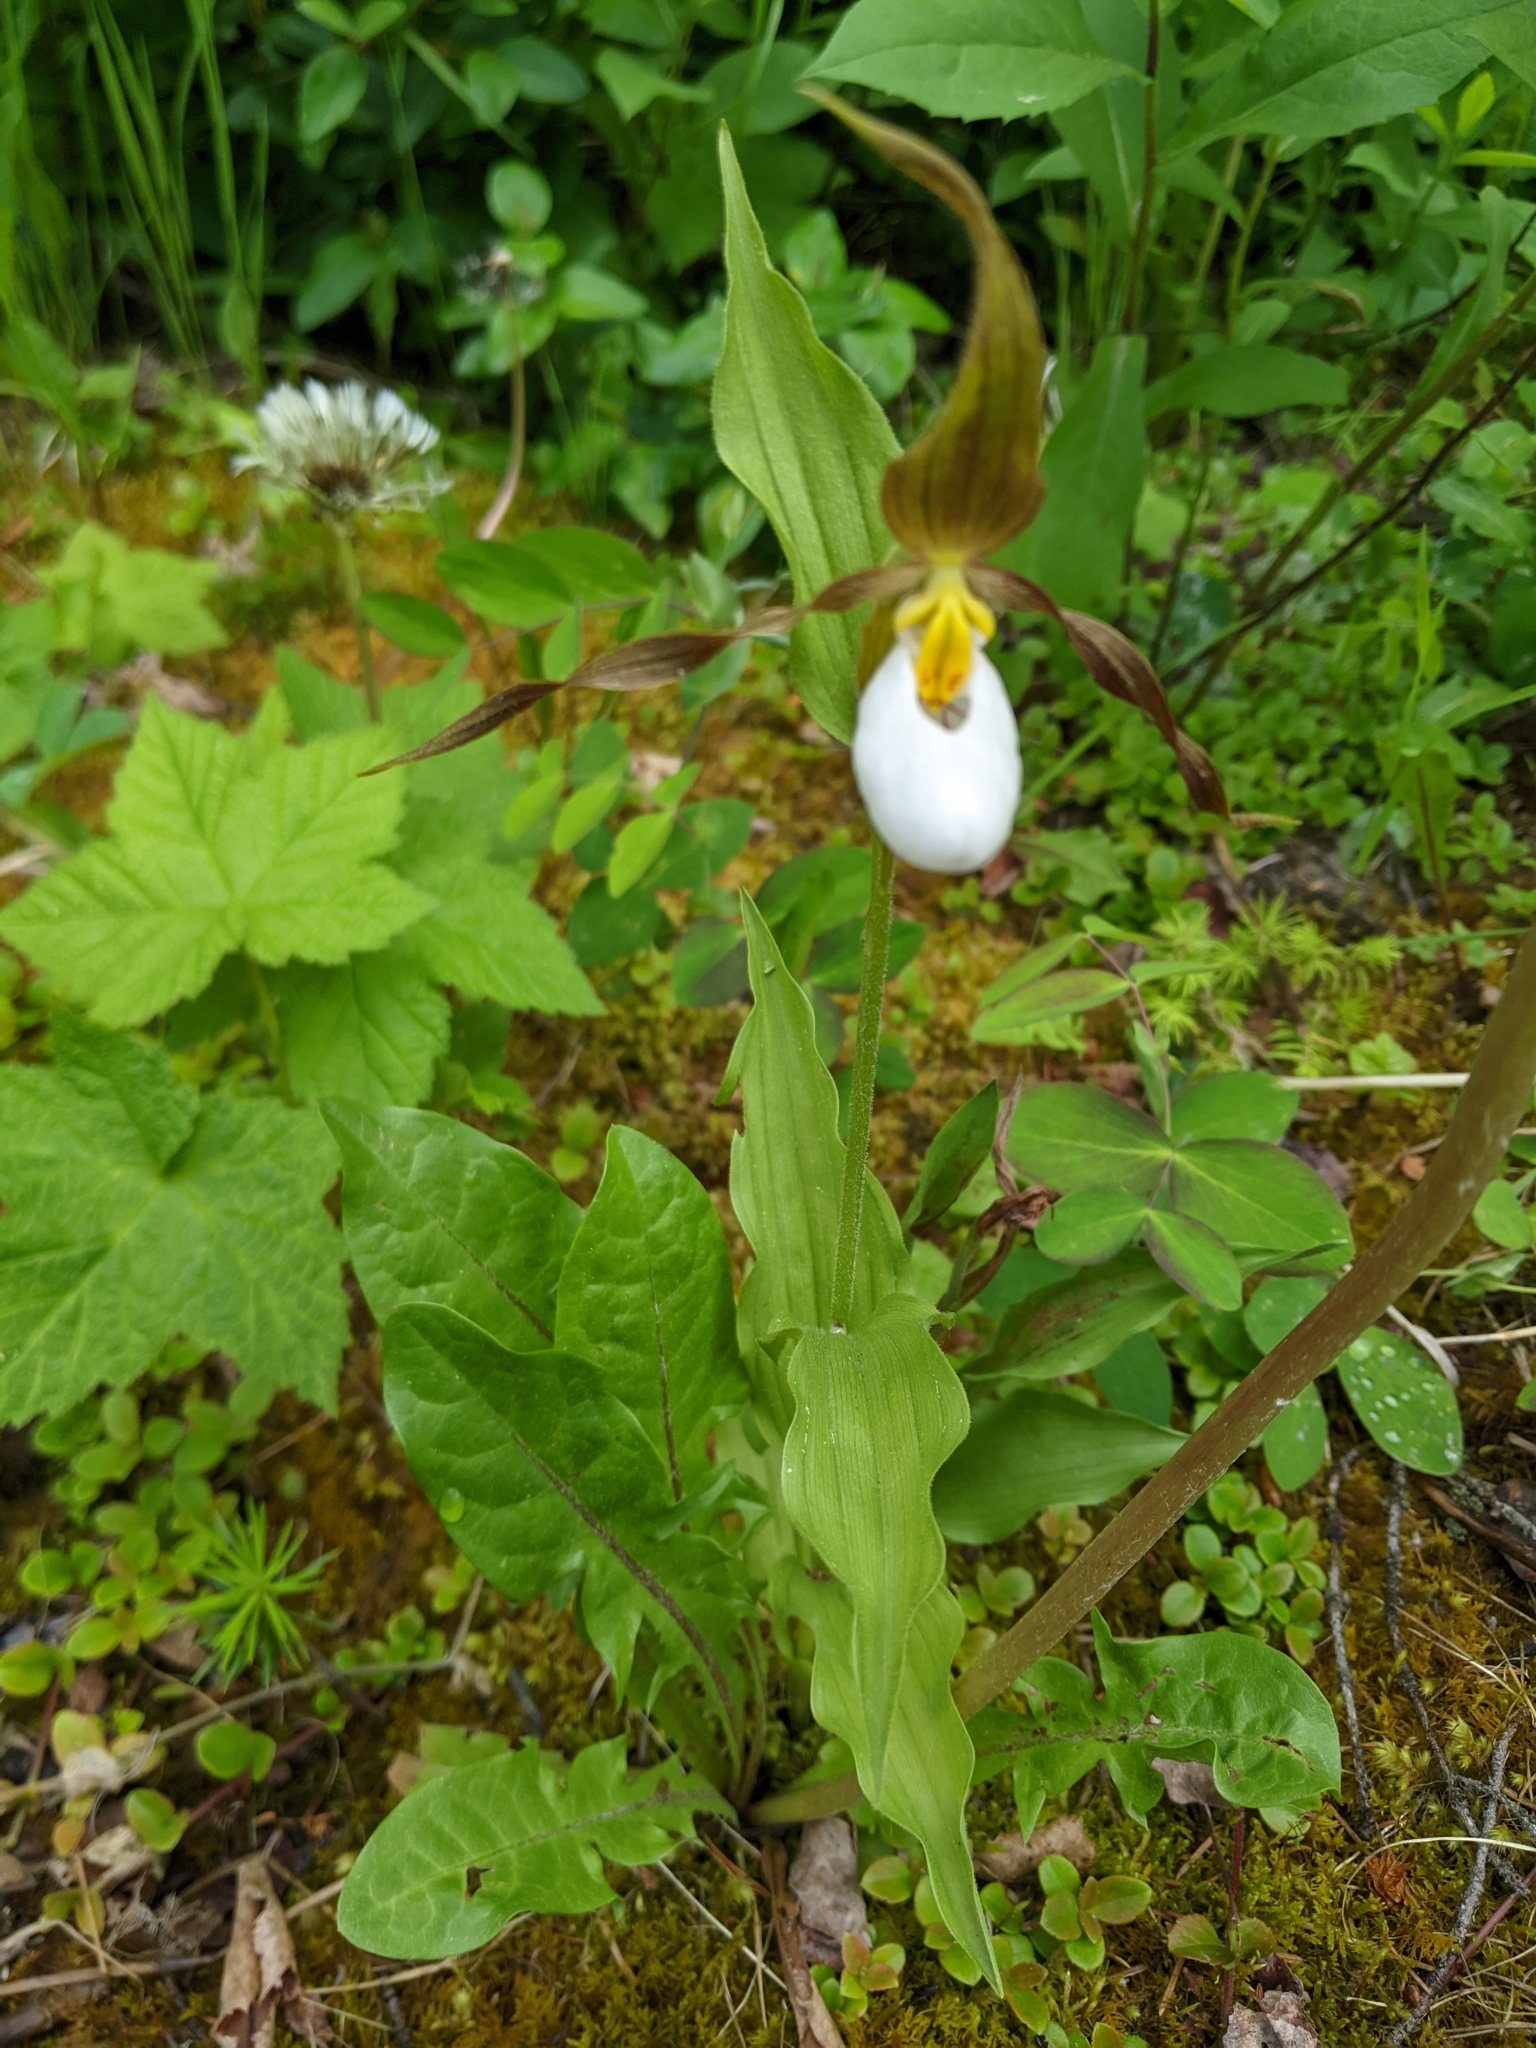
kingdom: Plantae
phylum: Tracheophyta
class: Liliopsida
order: Asparagales
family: Orchidaceae
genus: Cypripedium
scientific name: Cypripedium montanum
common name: Mountain lady's-slipper
